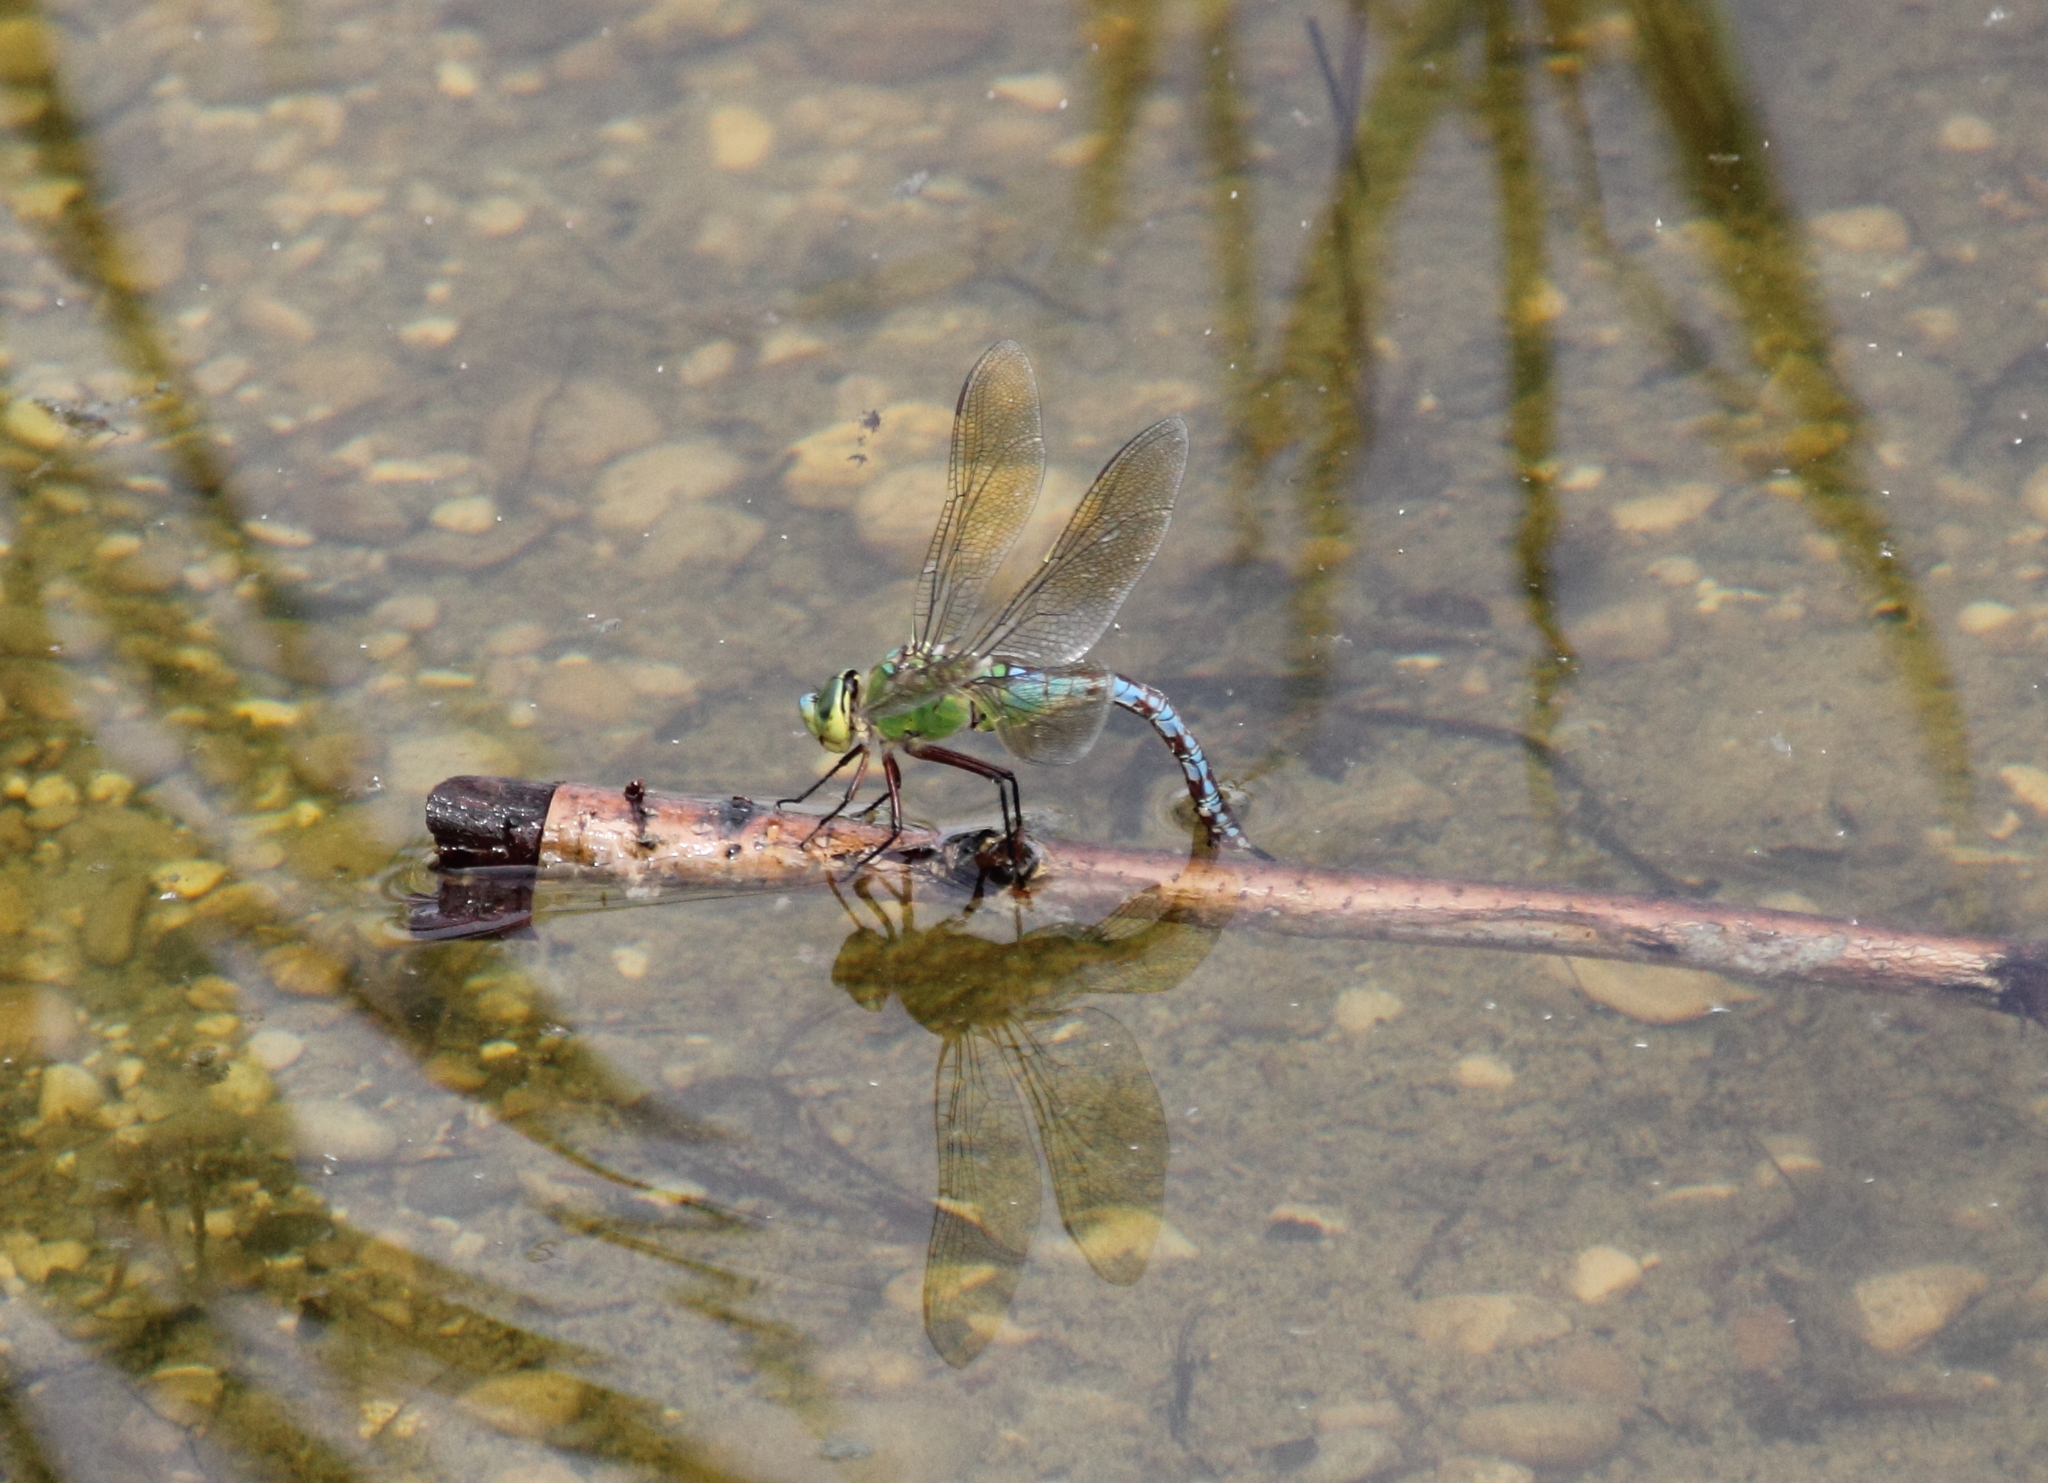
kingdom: Animalia
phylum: Arthropoda
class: Insecta
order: Odonata
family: Aeshnidae
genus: Anax
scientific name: Anax imperator
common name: Emperor dragonfly
